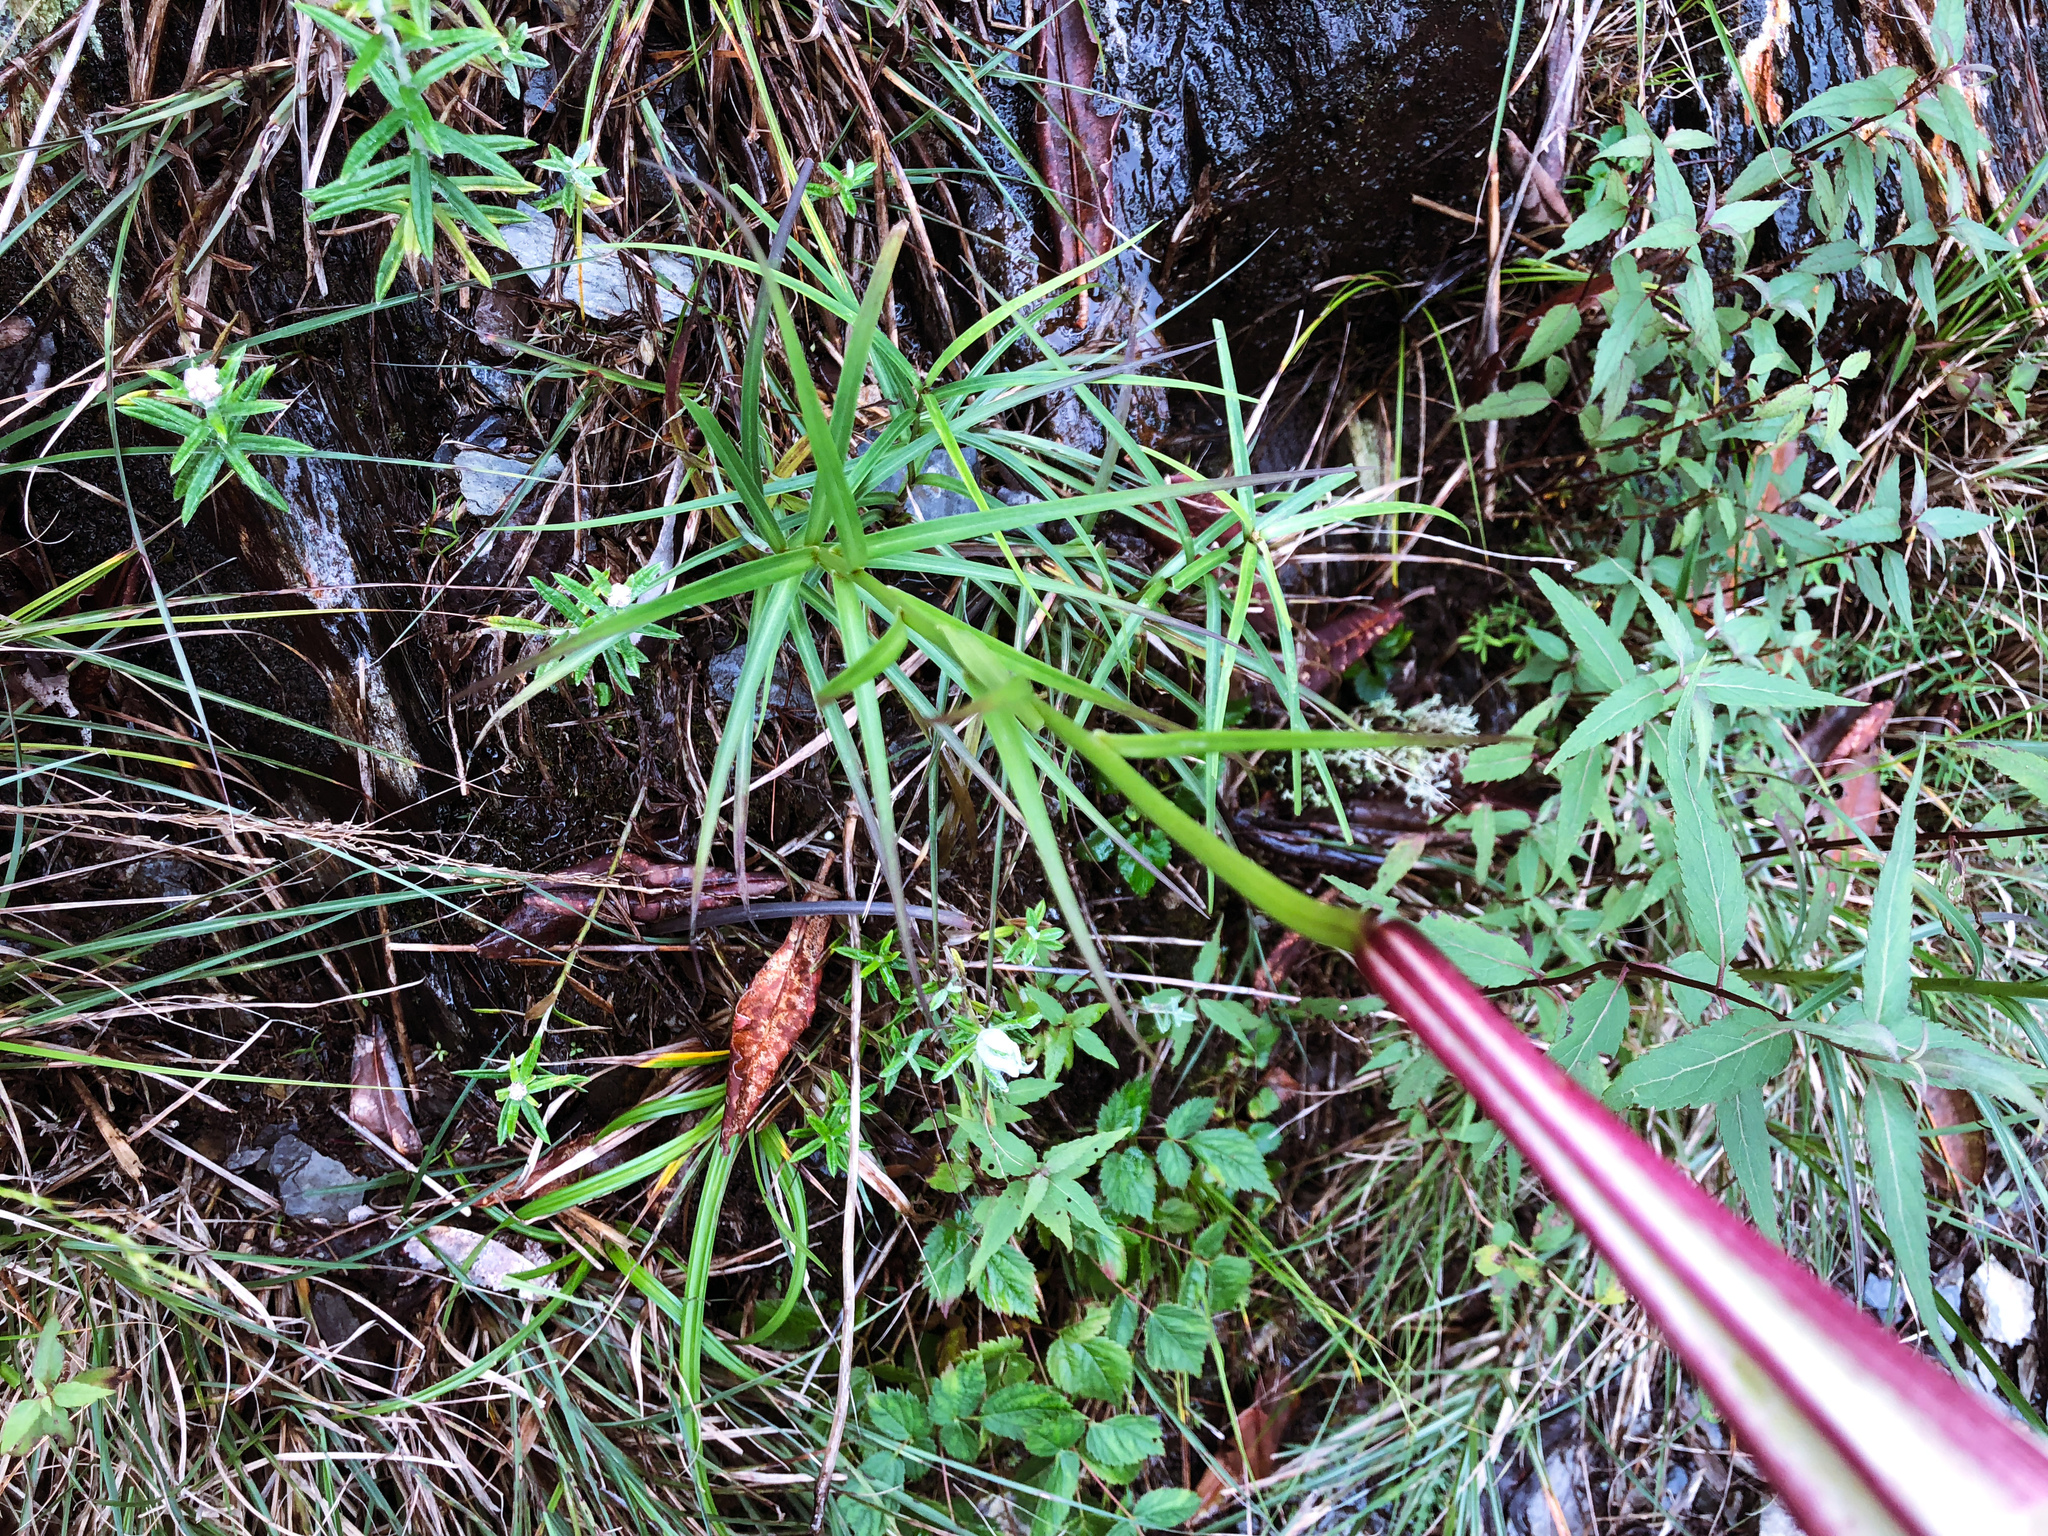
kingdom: Plantae
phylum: Tracheophyta
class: Liliopsida
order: Liliales
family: Liliaceae
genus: Lilium
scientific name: Lilium formosanum
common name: Formosa lily
